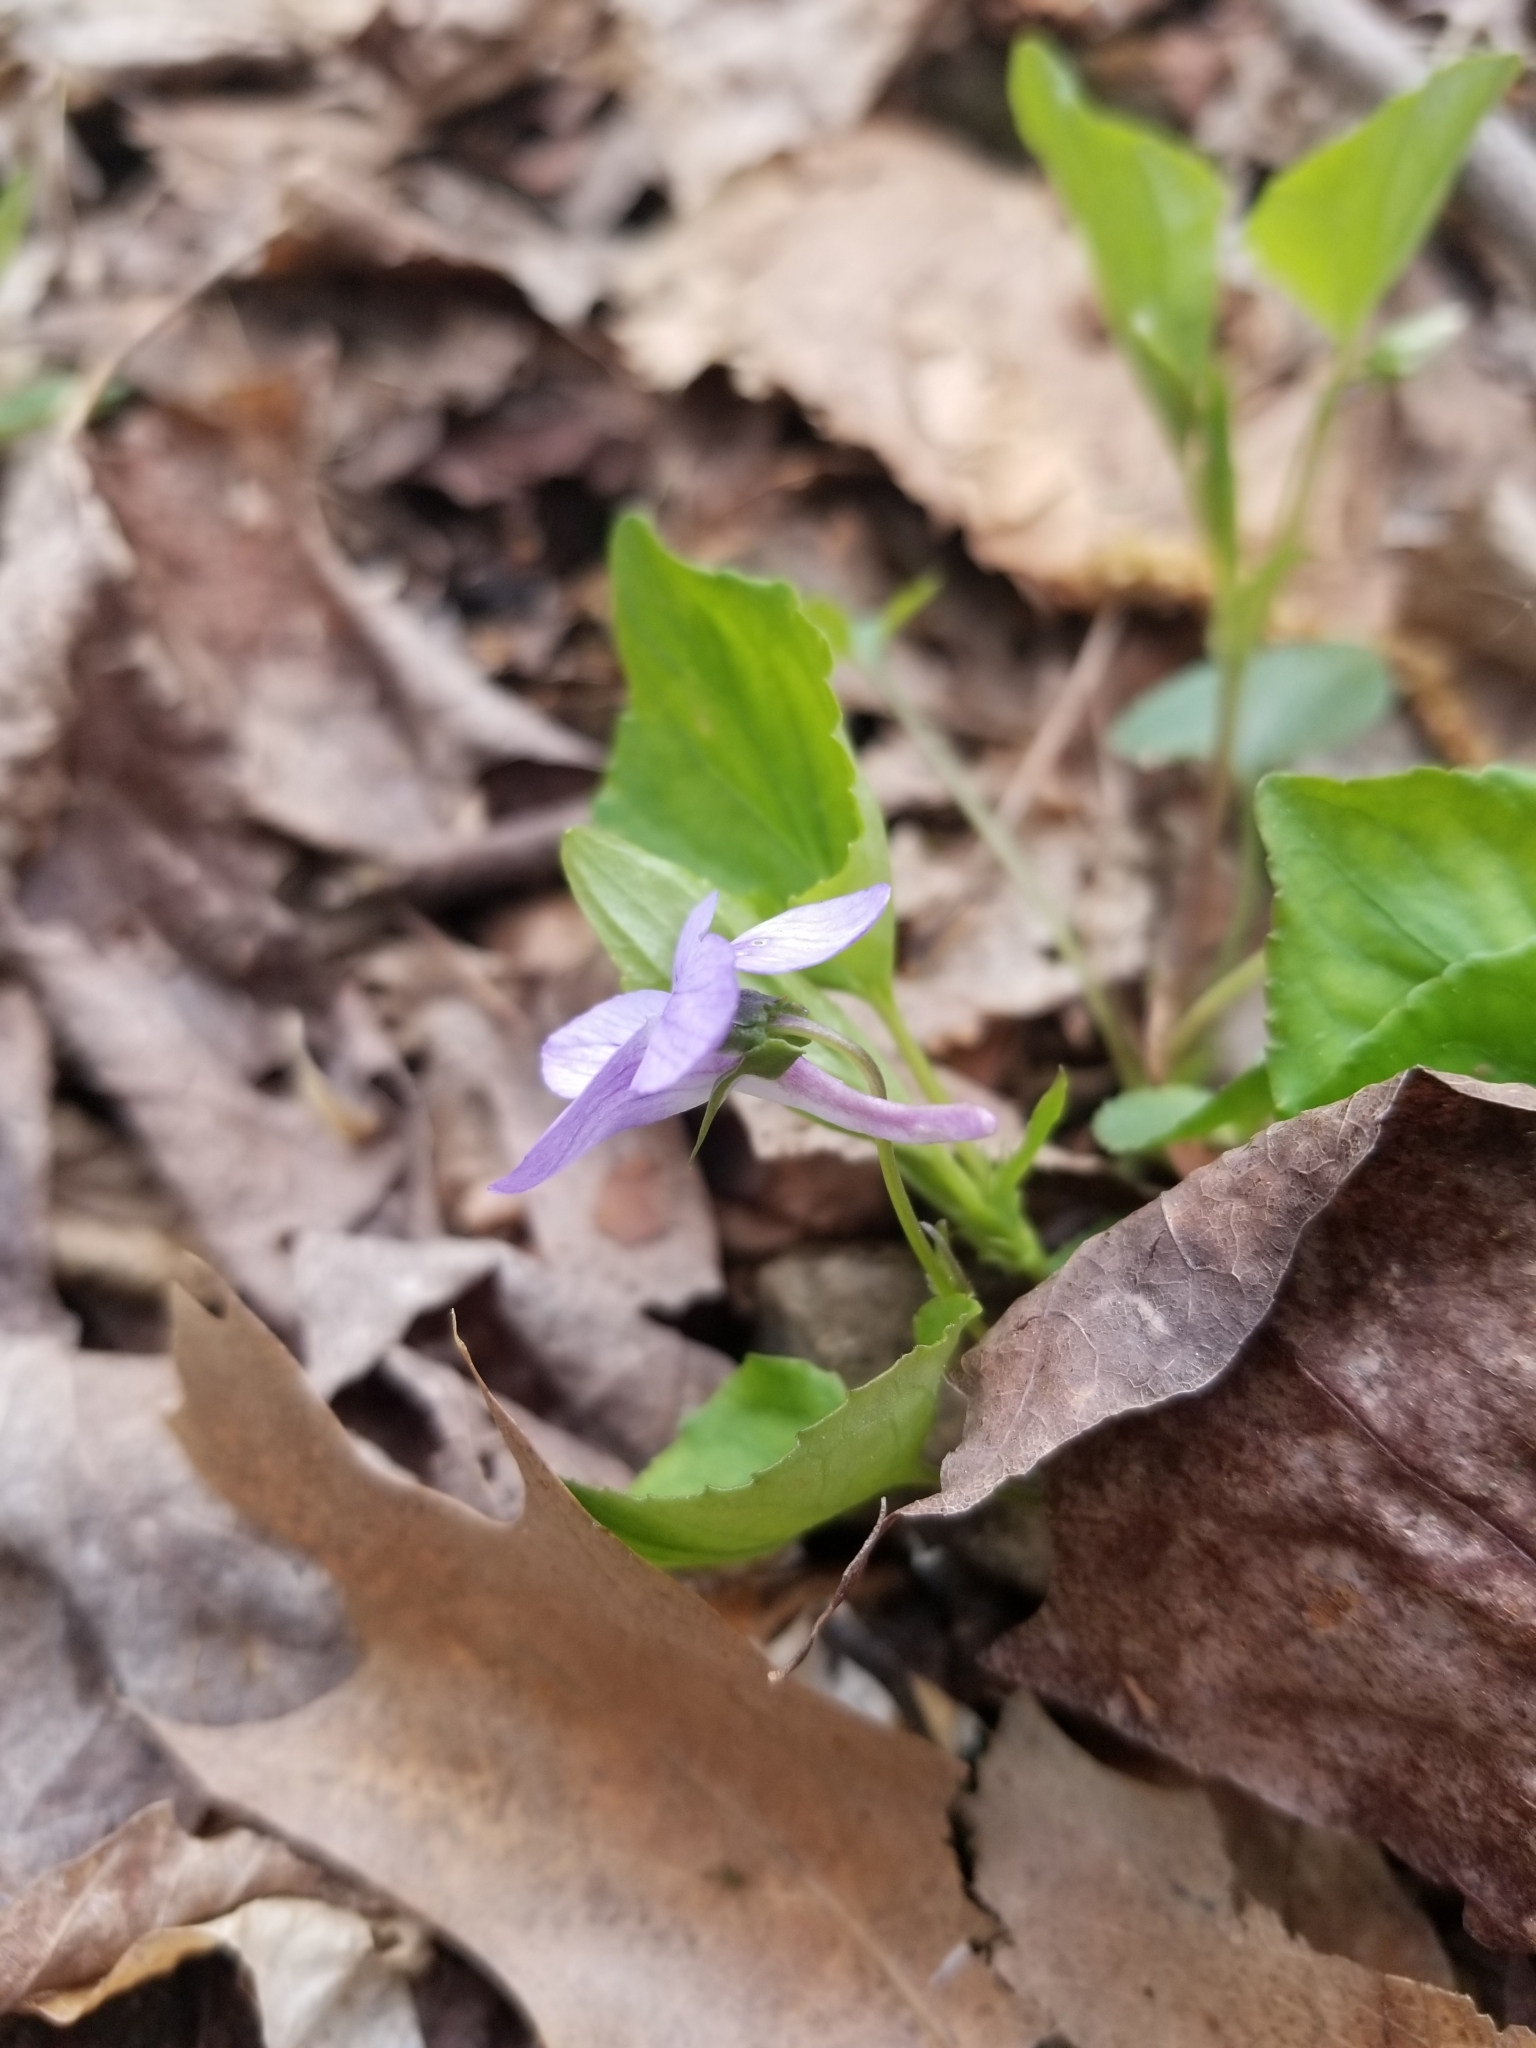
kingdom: Plantae
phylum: Tracheophyta
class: Magnoliopsida
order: Malpighiales
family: Violaceae
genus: Viola
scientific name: Viola rostrata
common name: Long-spur violet
